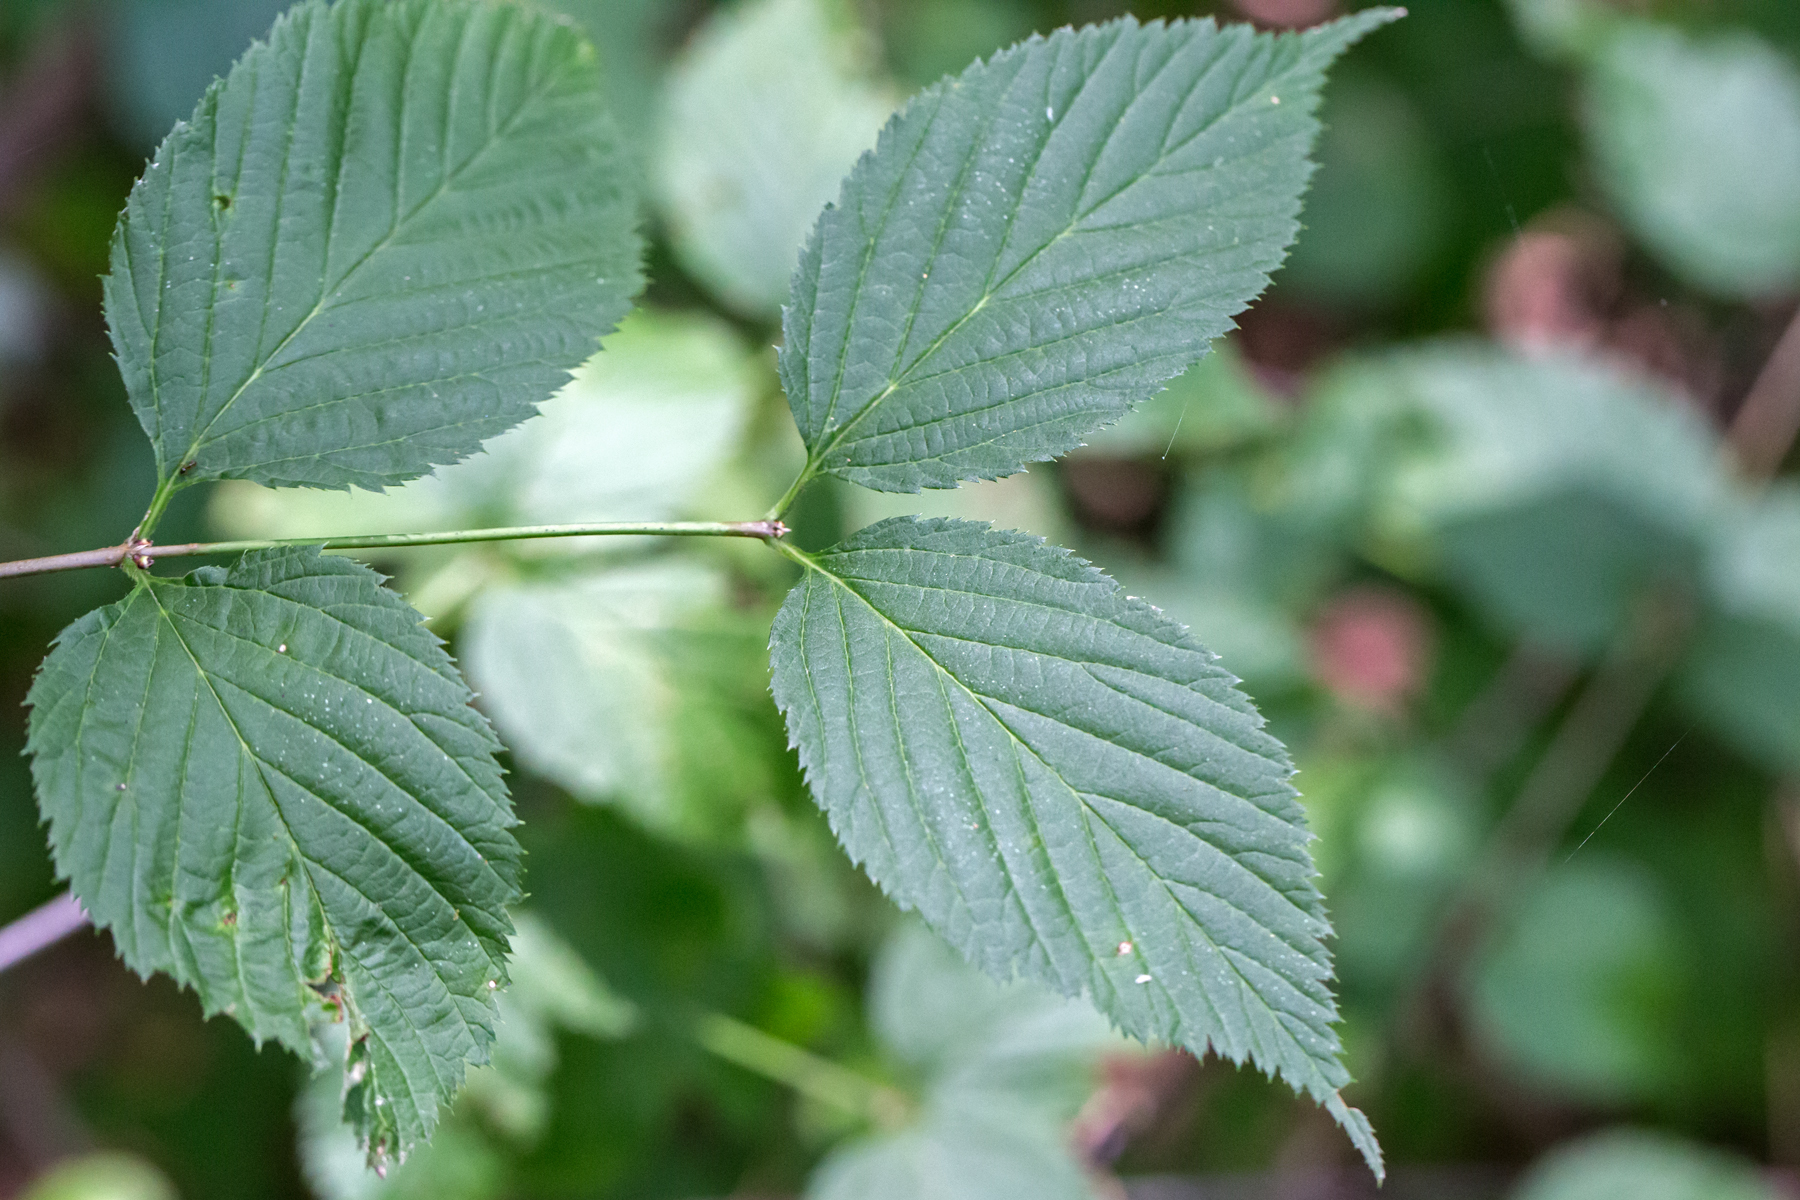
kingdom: Plantae
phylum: Tracheophyta
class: Magnoliopsida
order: Rosales
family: Rosaceae
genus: Rhodotypos
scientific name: Rhodotypos scandens
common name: Jetbead
